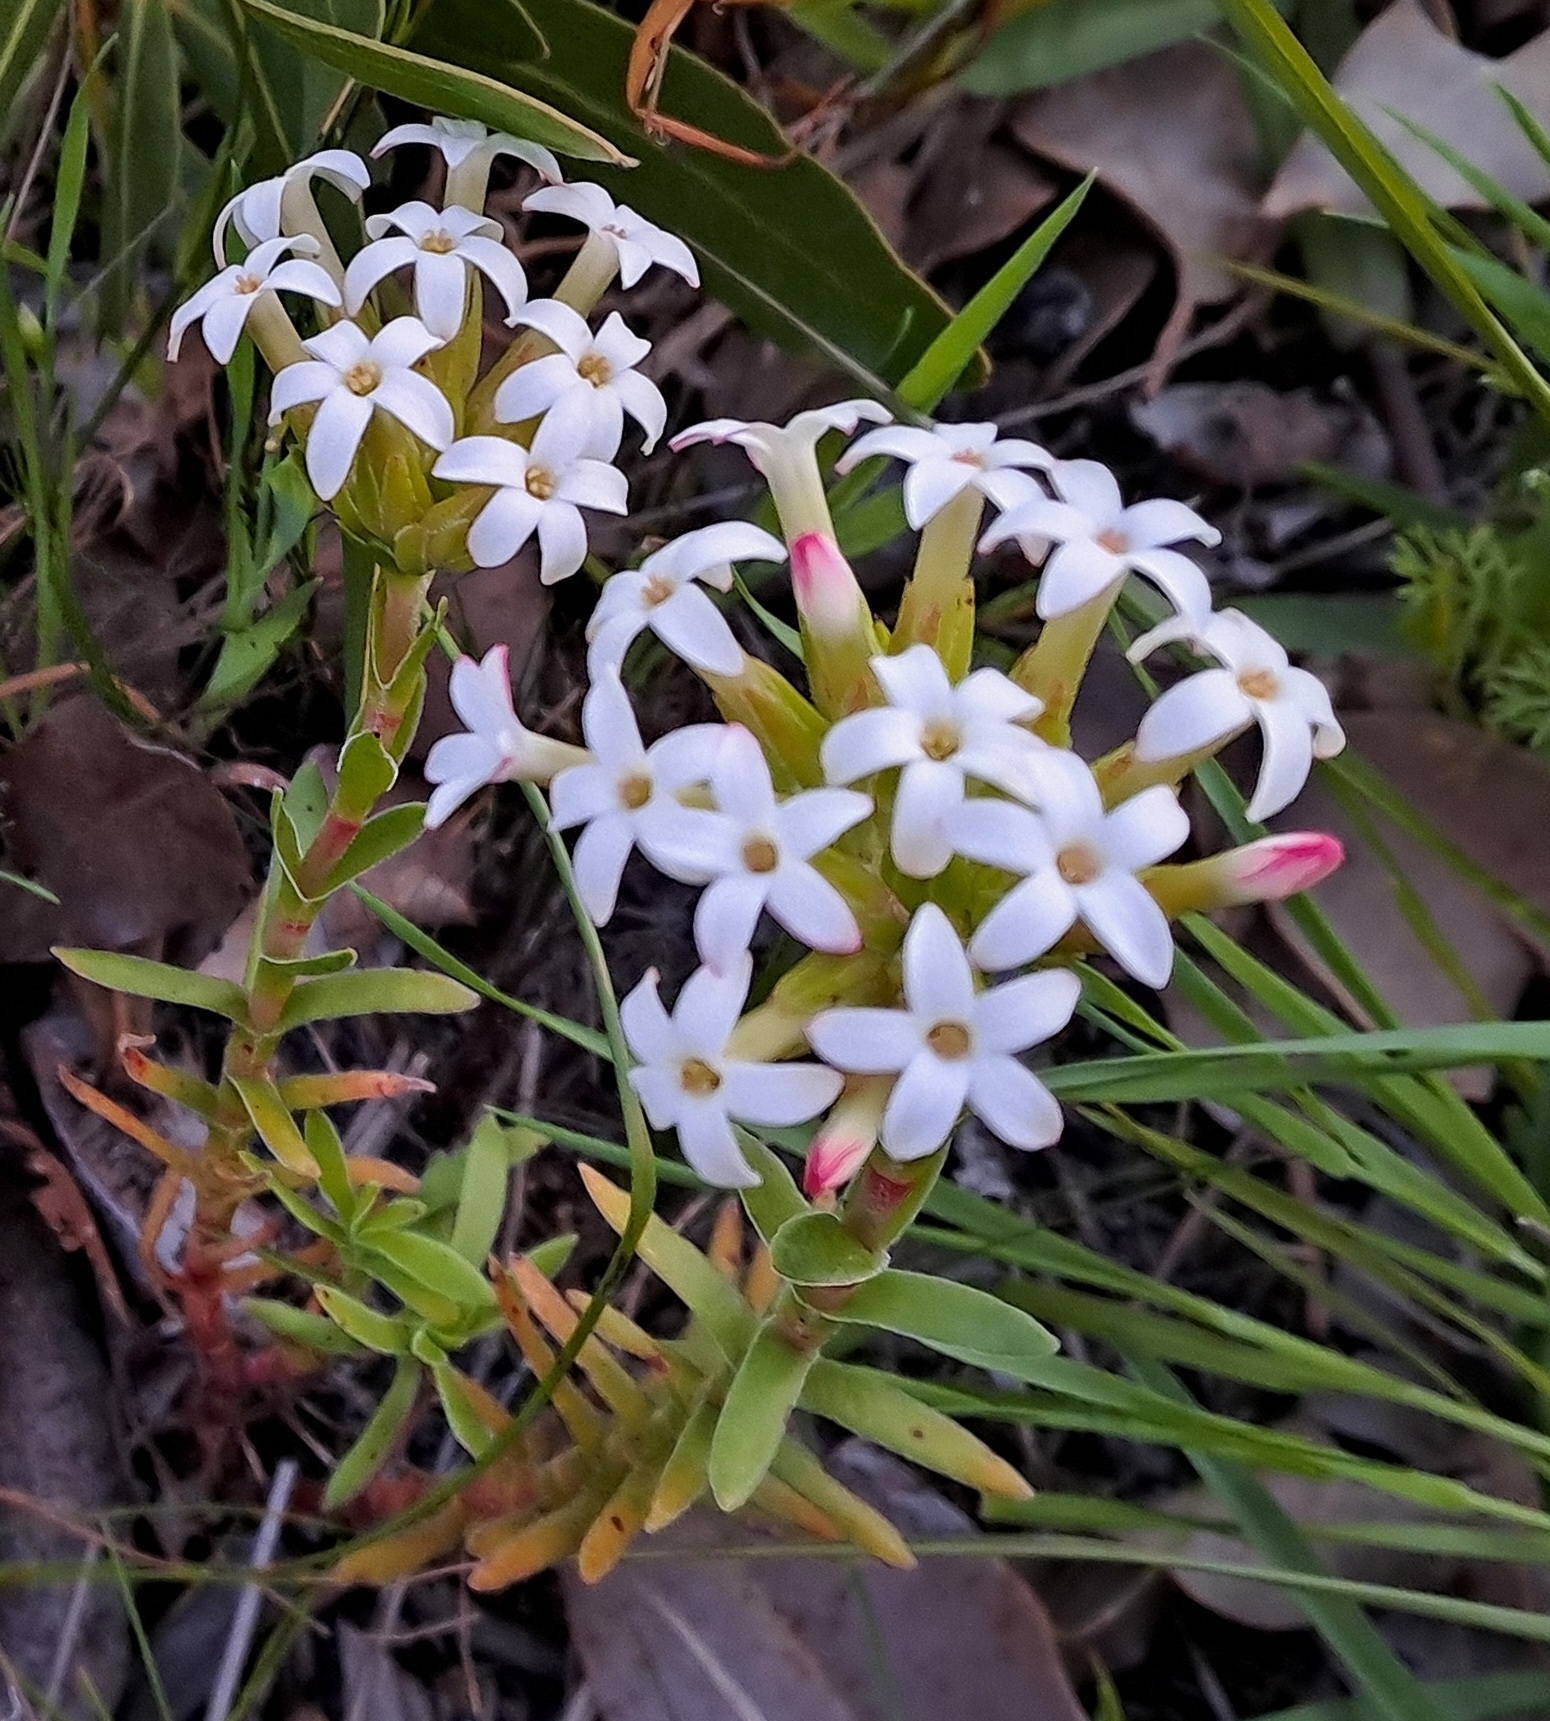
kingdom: Plantae
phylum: Tracheophyta
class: Magnoliopsida
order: Saxifragales
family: Crassulaceae
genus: Crassula
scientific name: Crassula fascicularis
